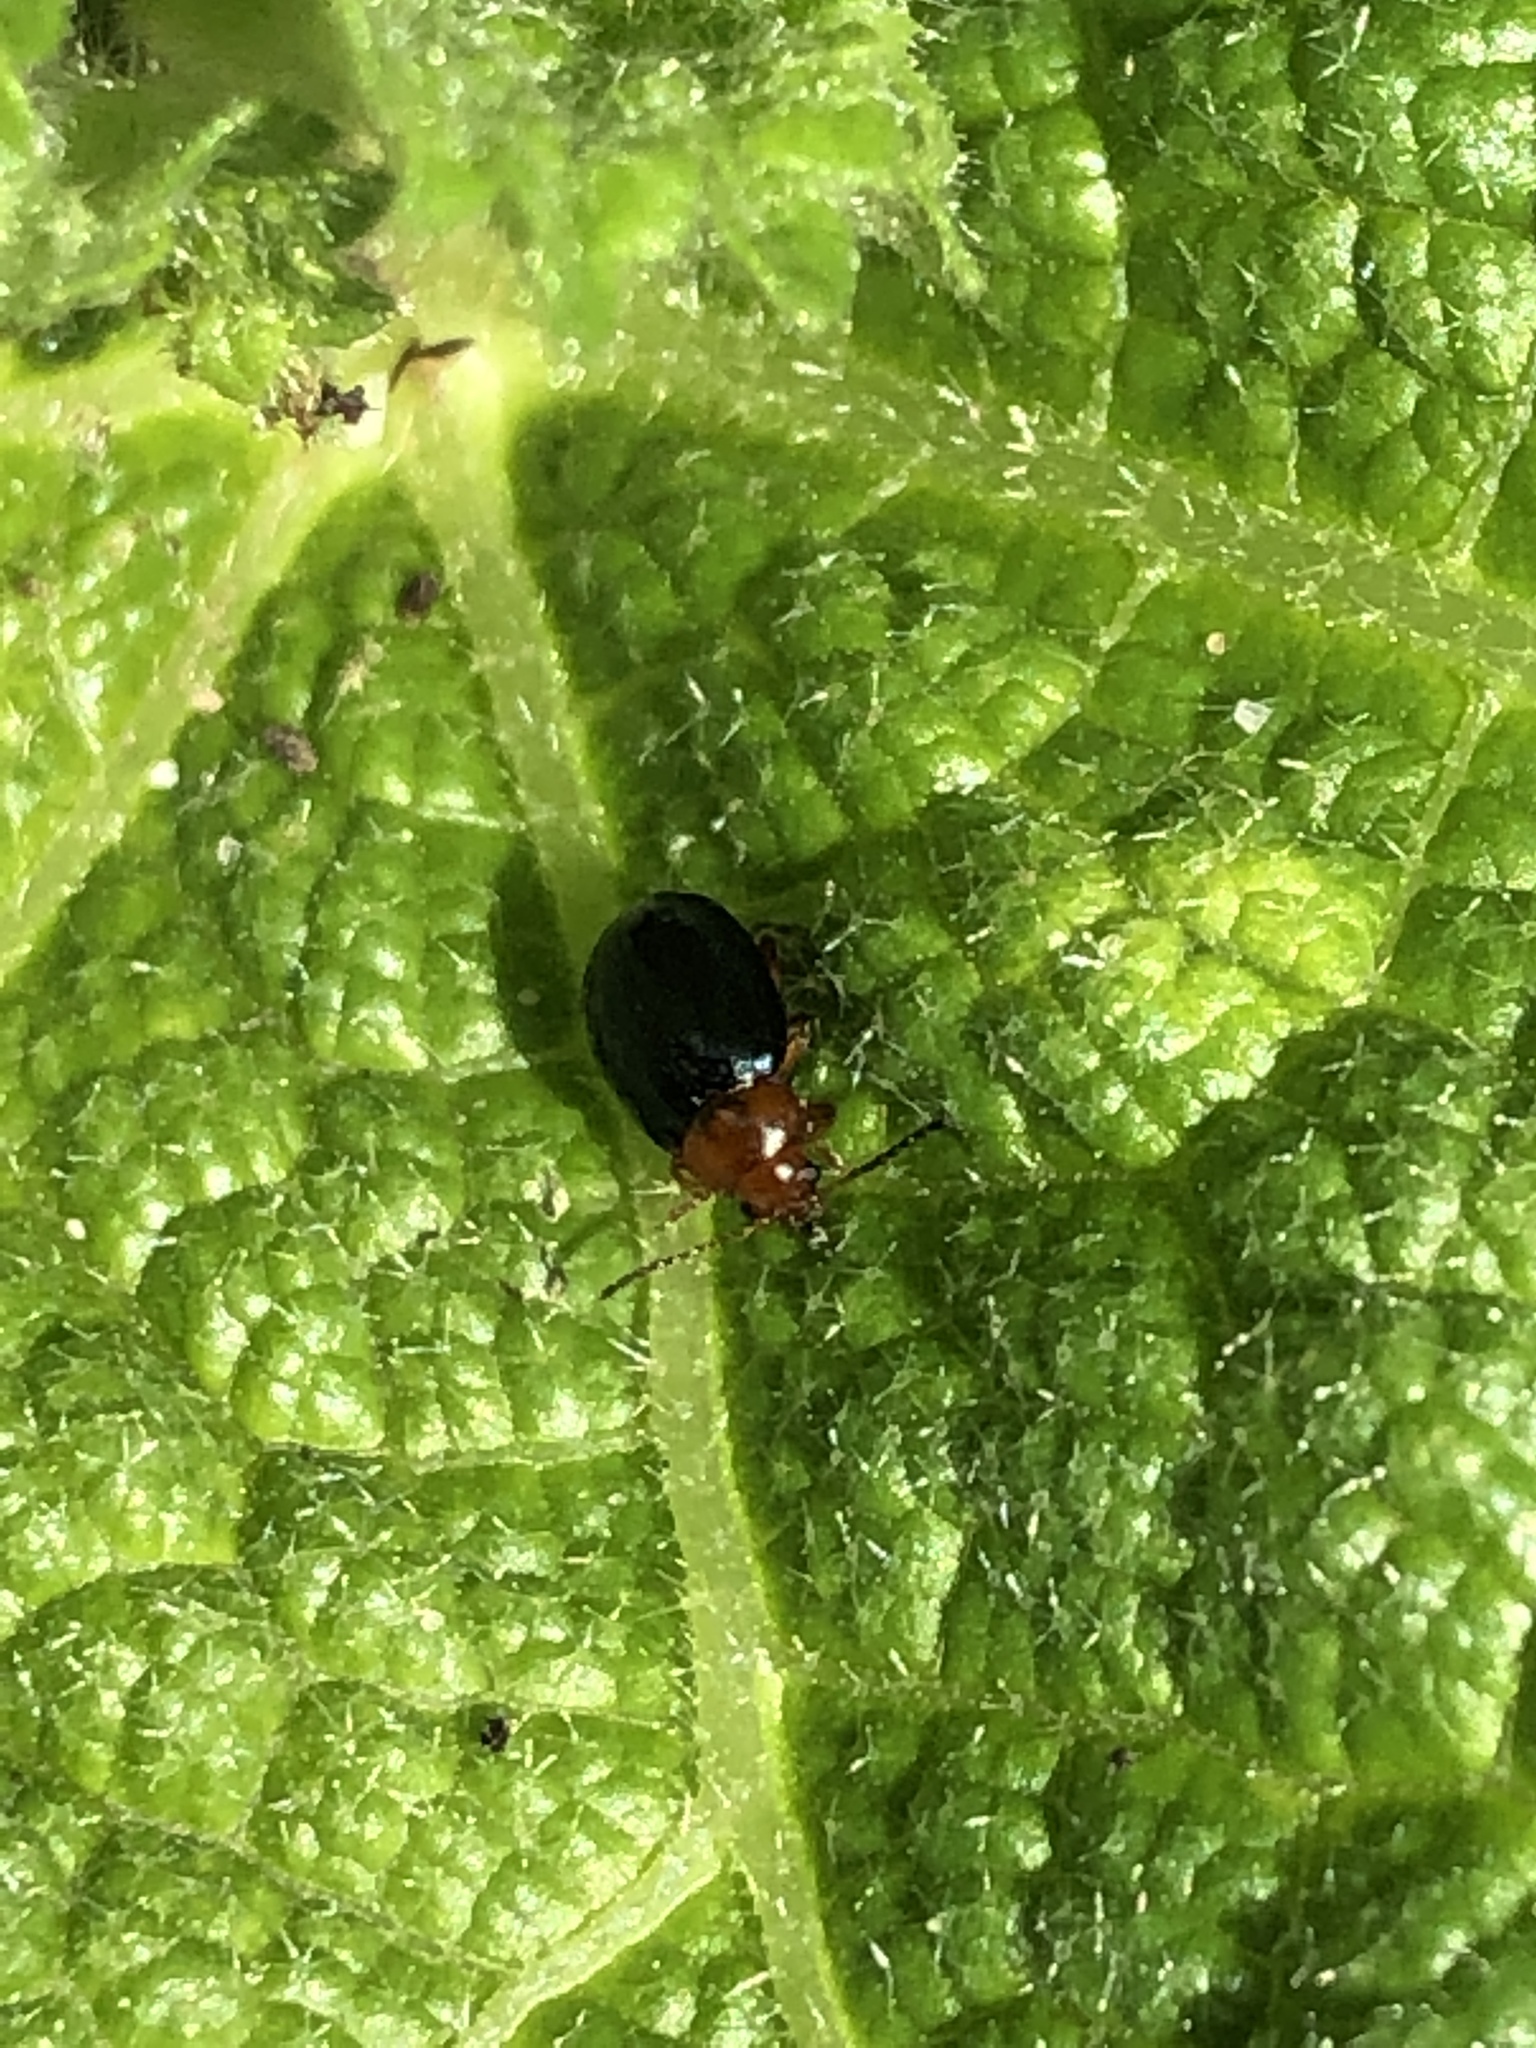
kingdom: Animalia
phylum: Arthropoda
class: Insecta
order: Coleoptera
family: Chrysomelidae
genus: Podagrica
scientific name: Podagrica fuscicornis
